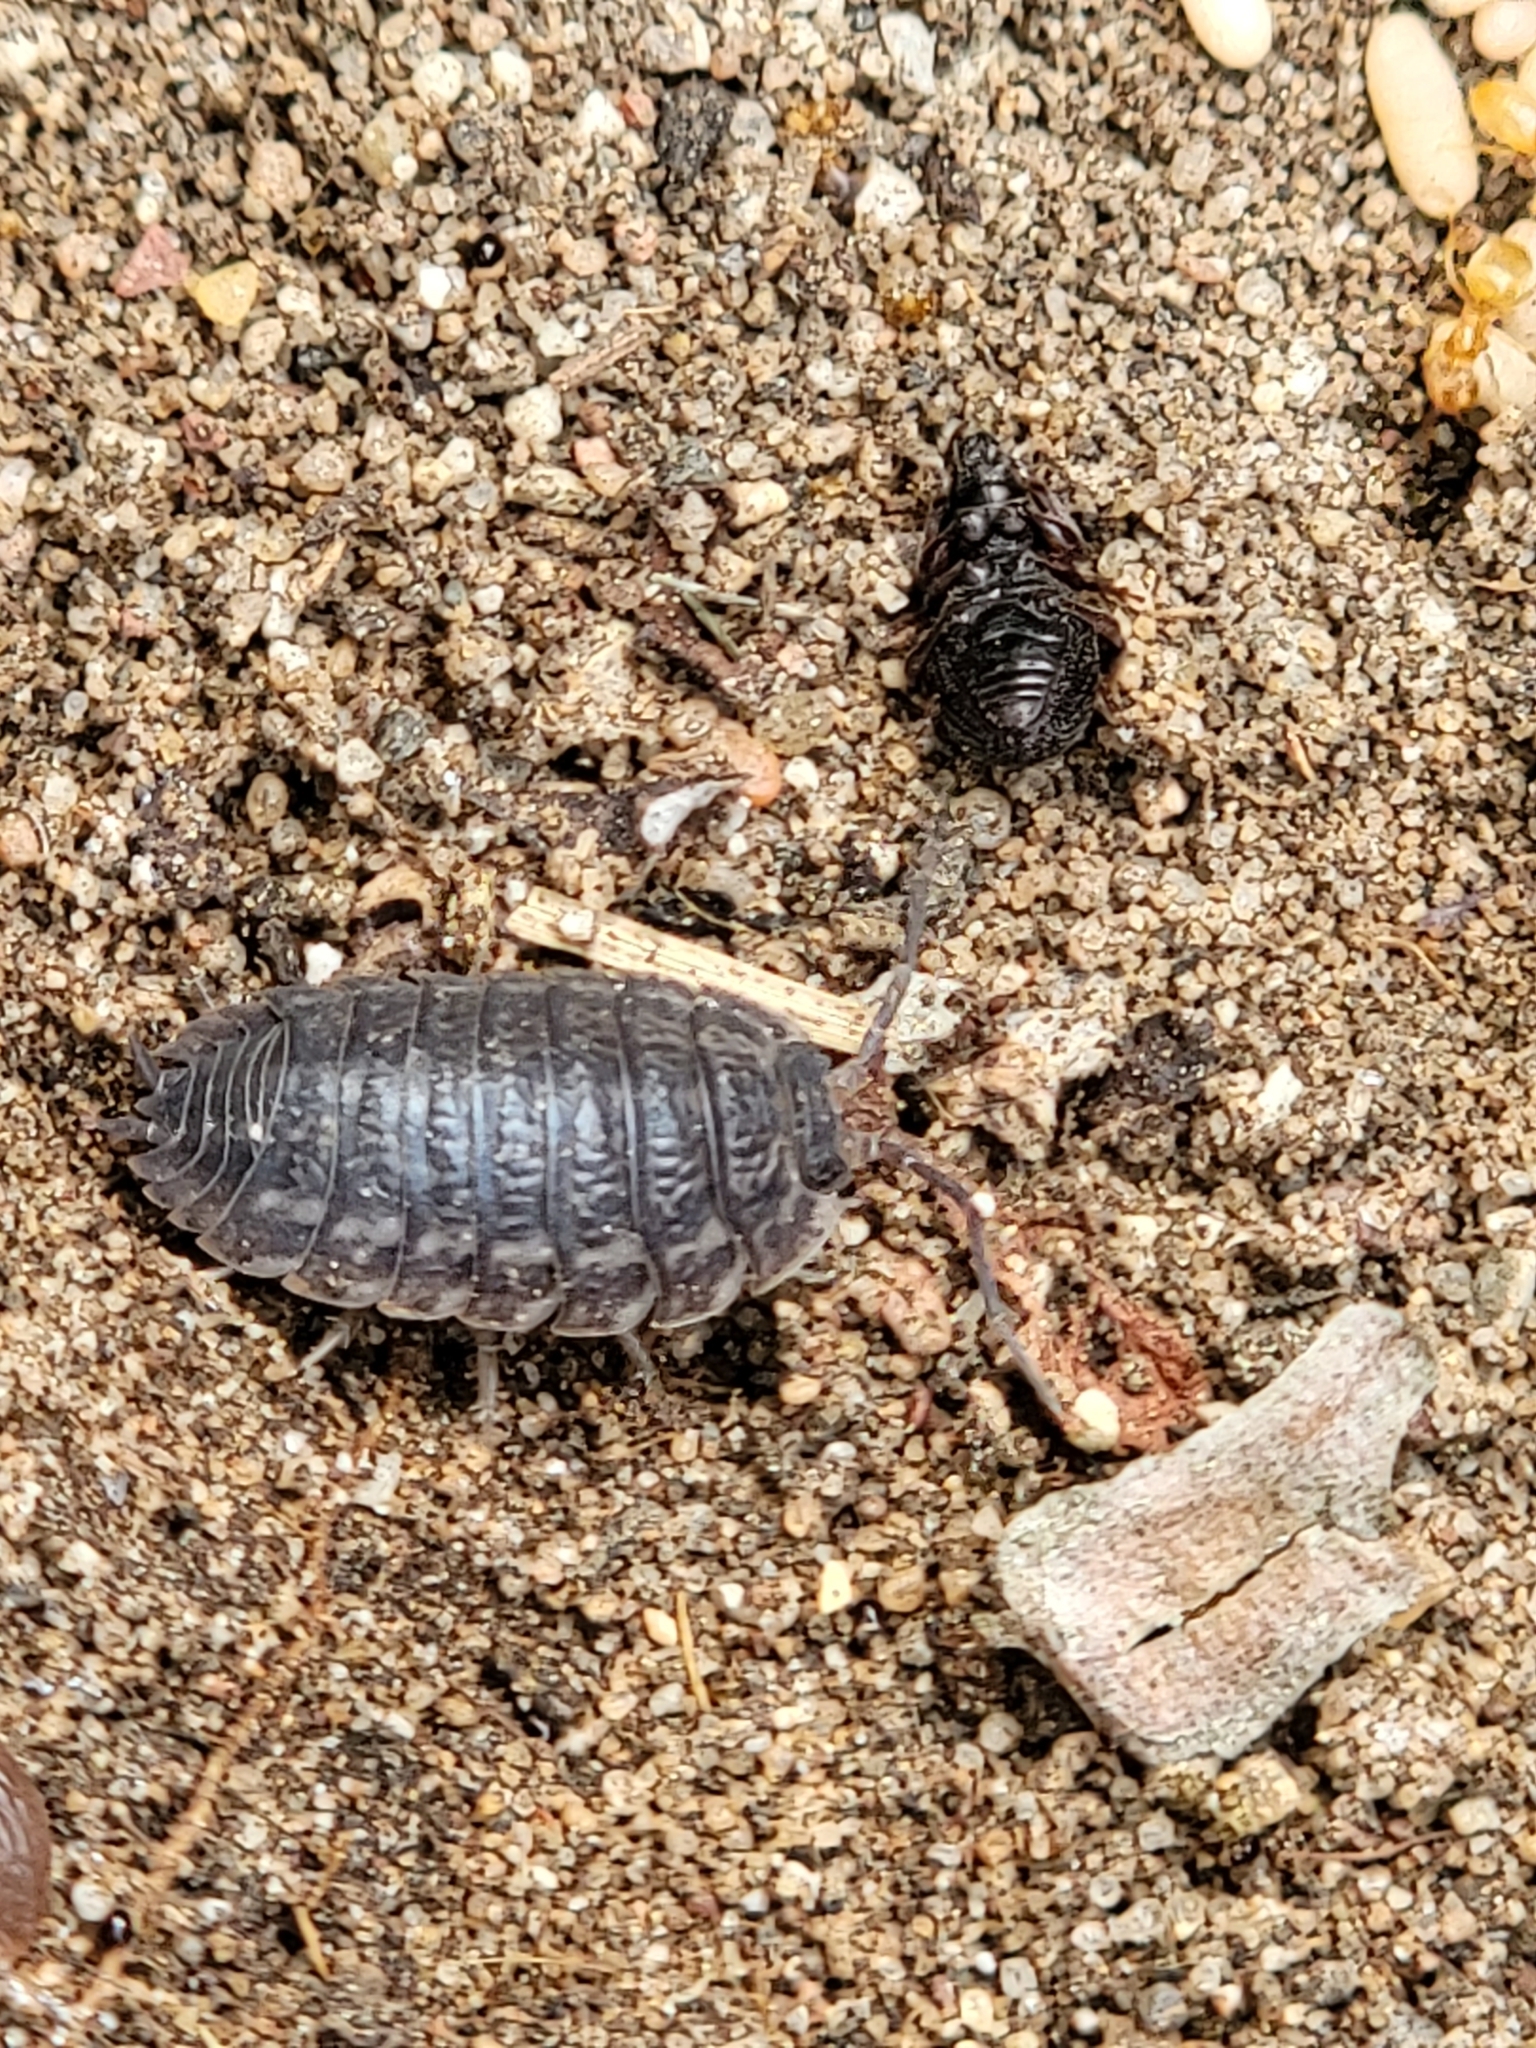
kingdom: Animalia
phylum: Arthropoda
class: Malacostraca
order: Isopoda
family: Trachelipodidae
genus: Trachelipus
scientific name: Trachelipus rathkii
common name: Isopod
